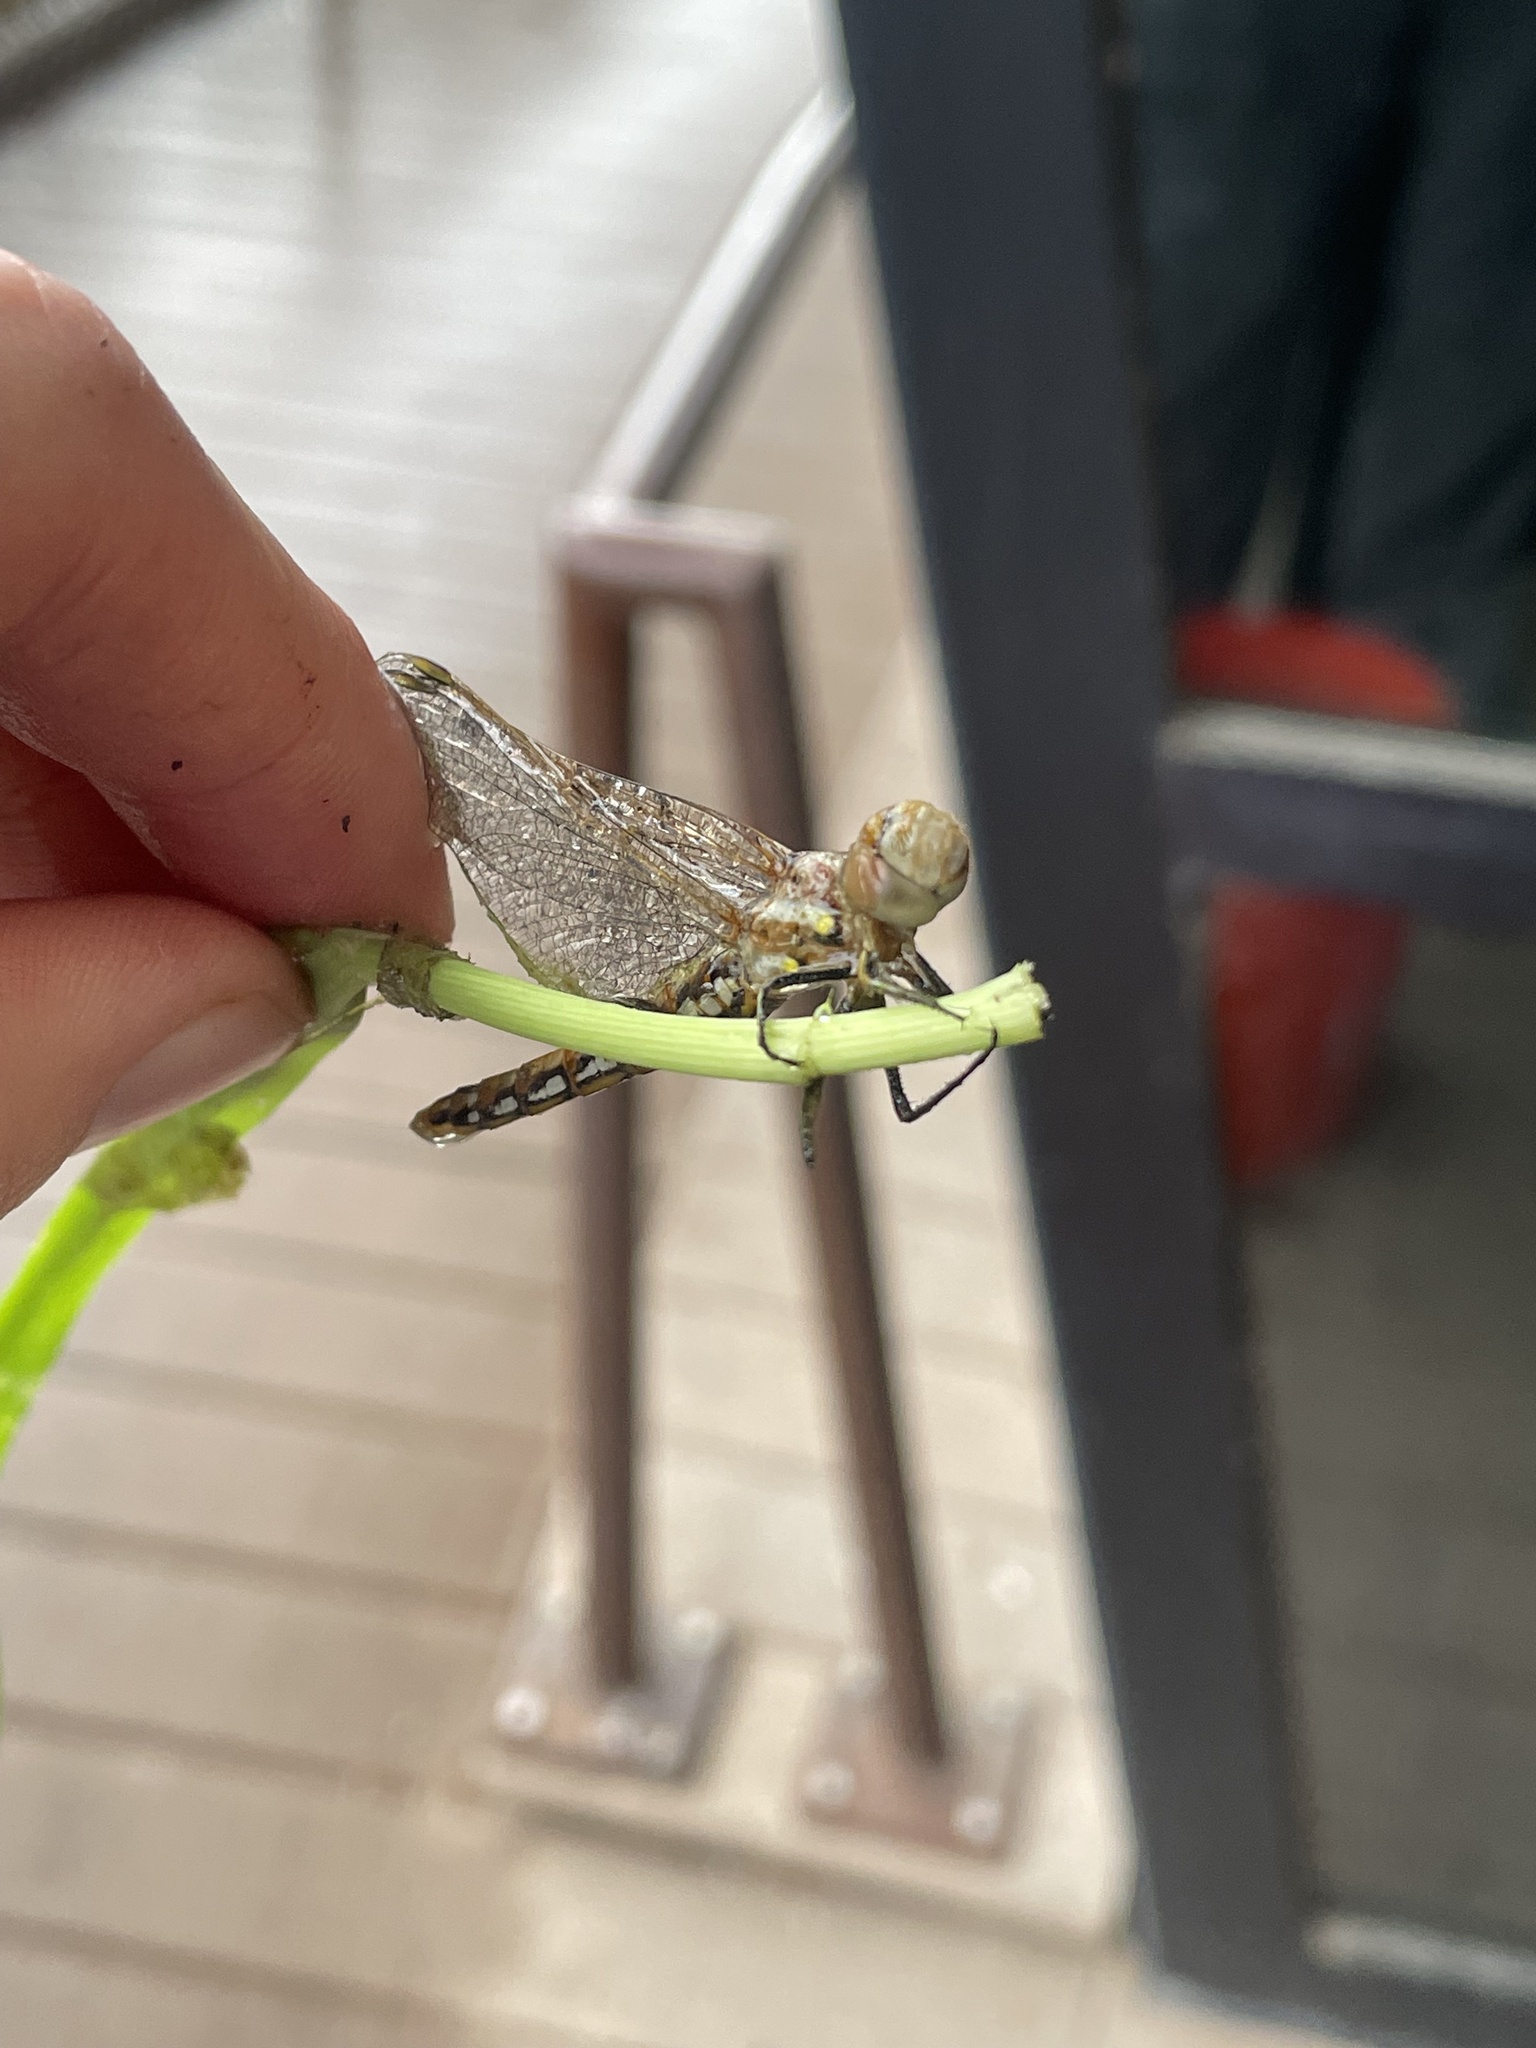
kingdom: Animalia
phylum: Arthropoda
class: Insecta
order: Odonata
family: Libellulidae
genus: Sympetrum
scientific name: Sympetrum corruptum
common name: Variegated meadowhawk
